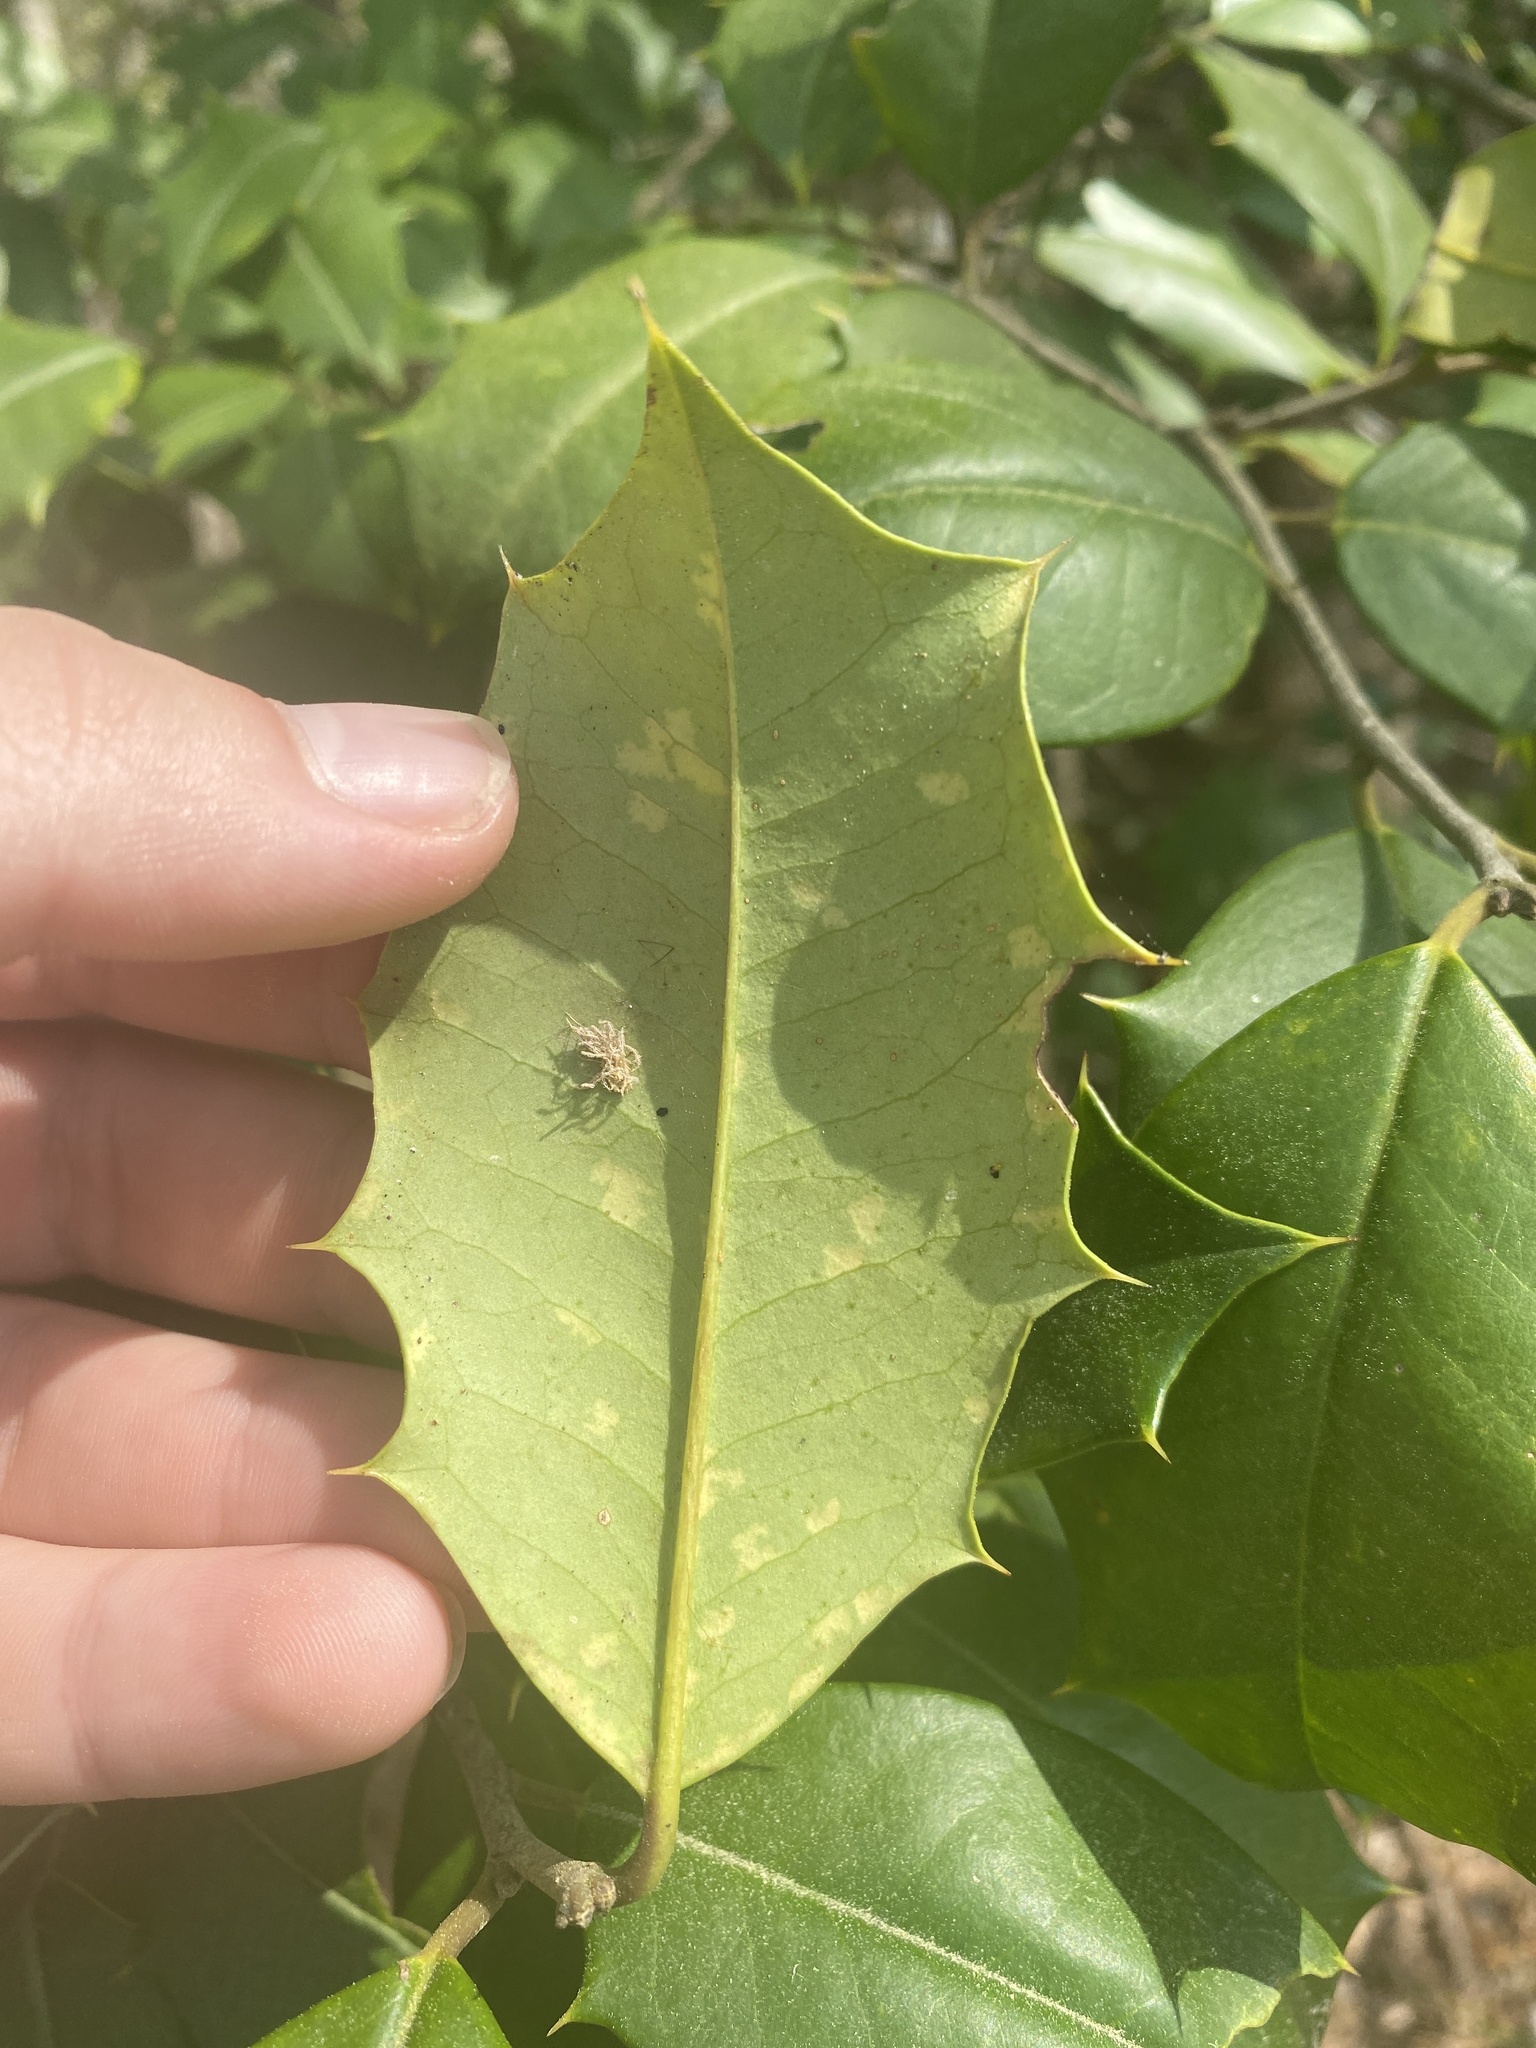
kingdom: Plantae
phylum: Tracheophyta
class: Magnoliopsida
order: Aquifoliales
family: Aquifoliaceae
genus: Ilex
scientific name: Ilex opaca
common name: American holly
